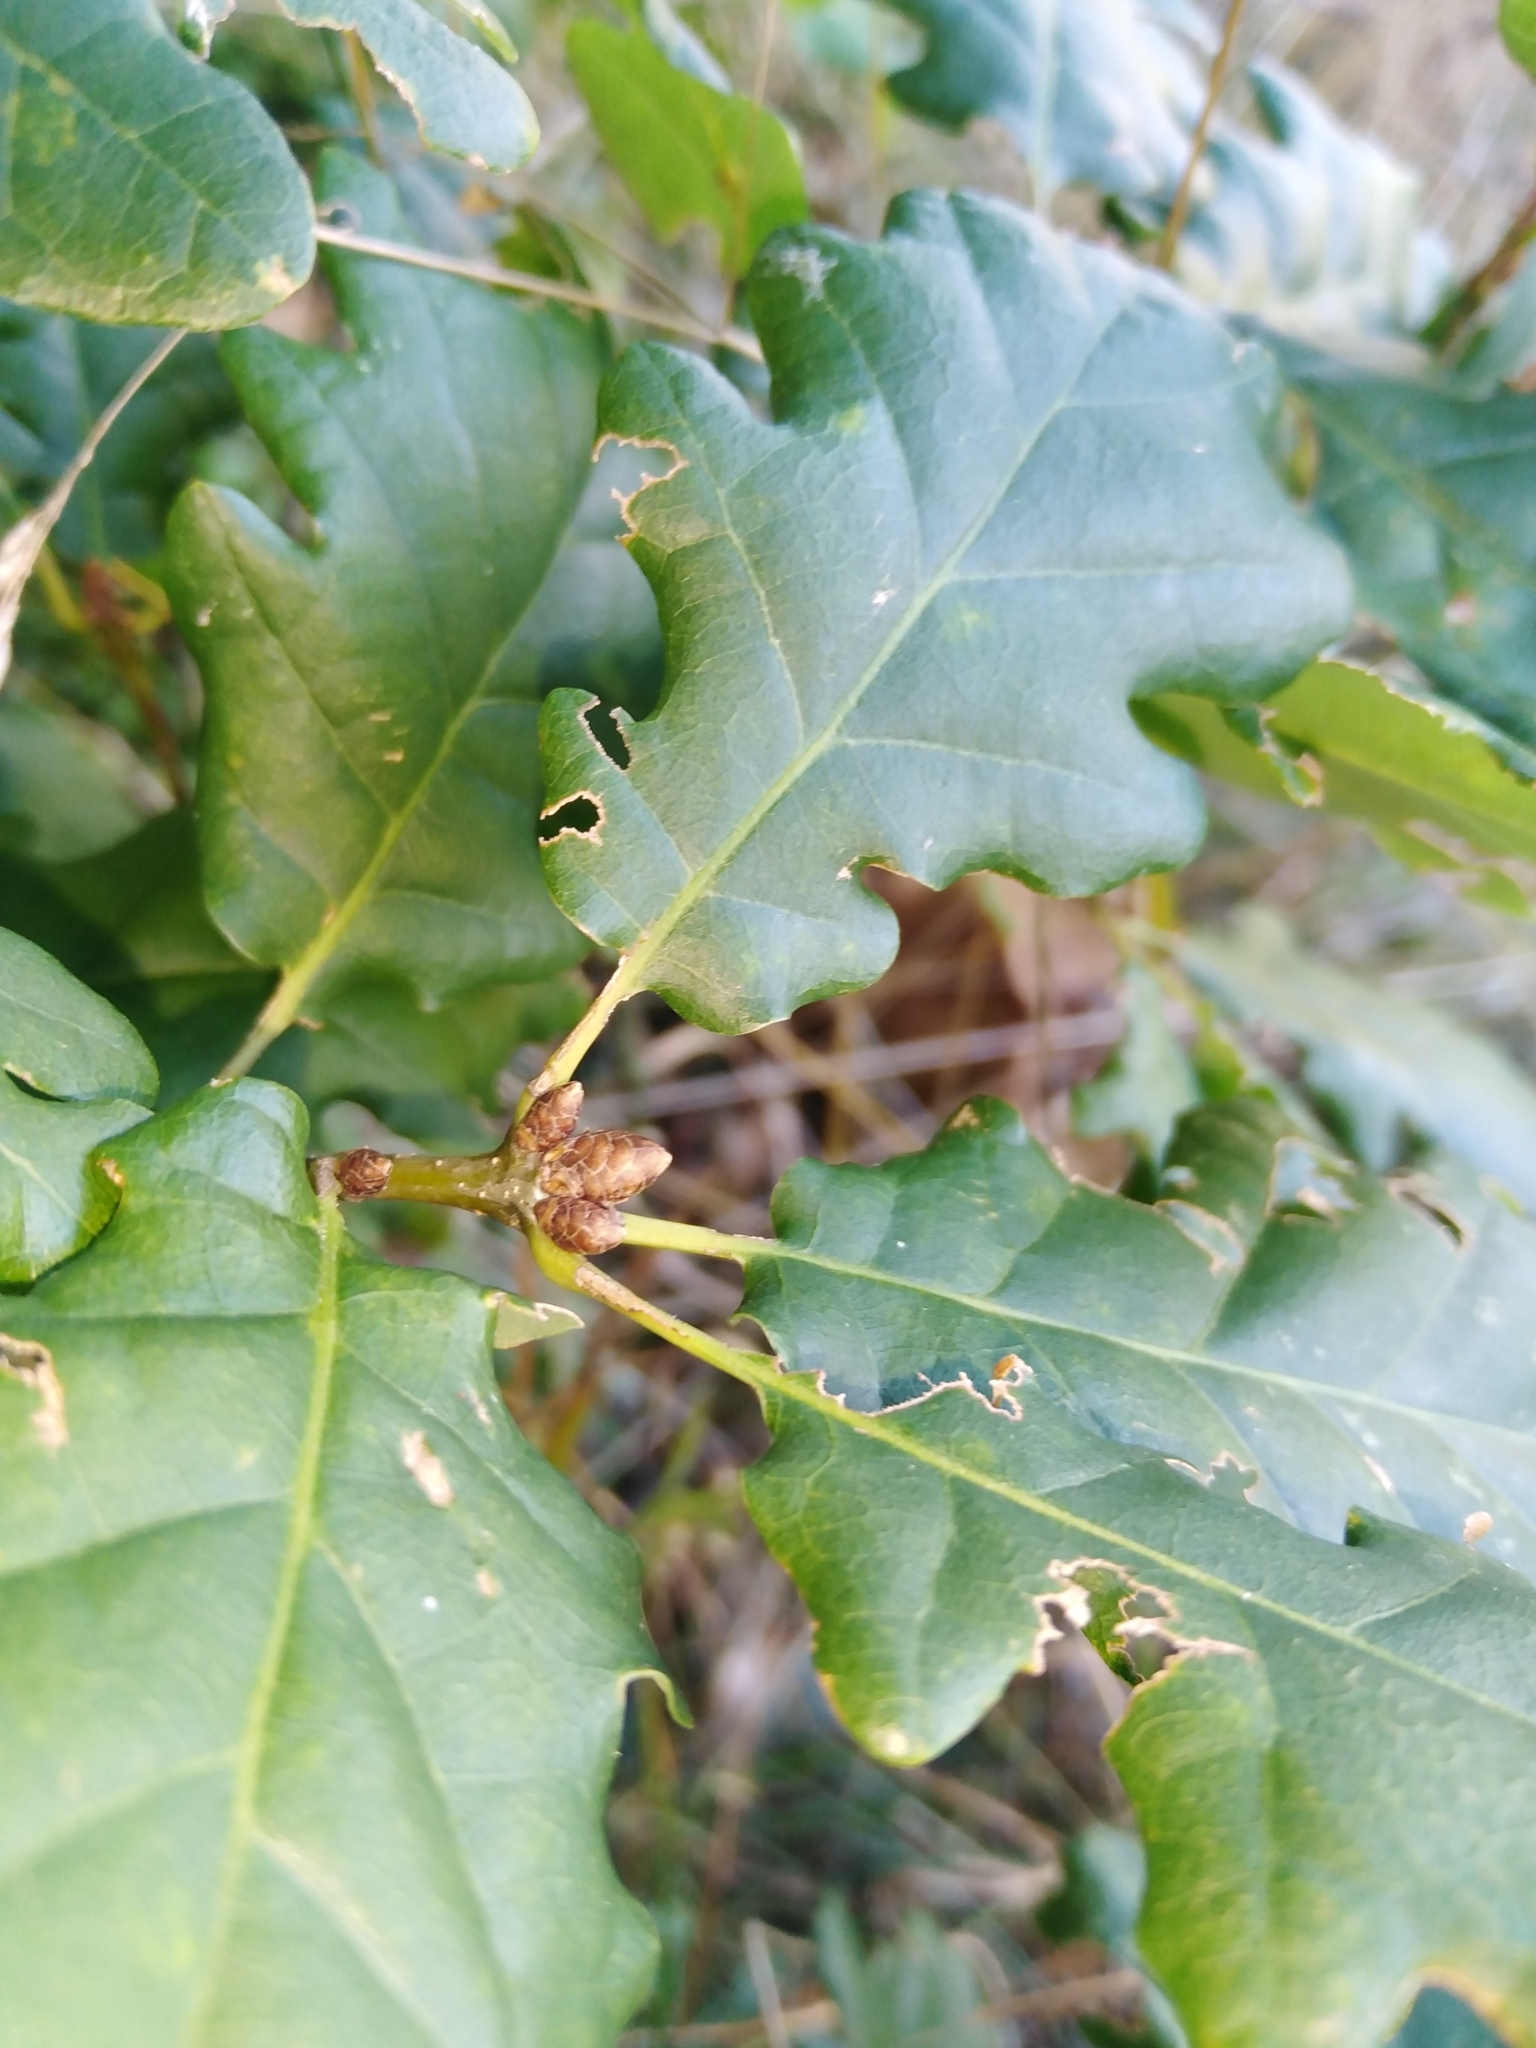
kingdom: Plantae
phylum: Tracheophyta
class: Magnoliopsida
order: Fagales
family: Fagaceae
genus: Quercus
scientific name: Quercus petraea
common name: Sessile oak
